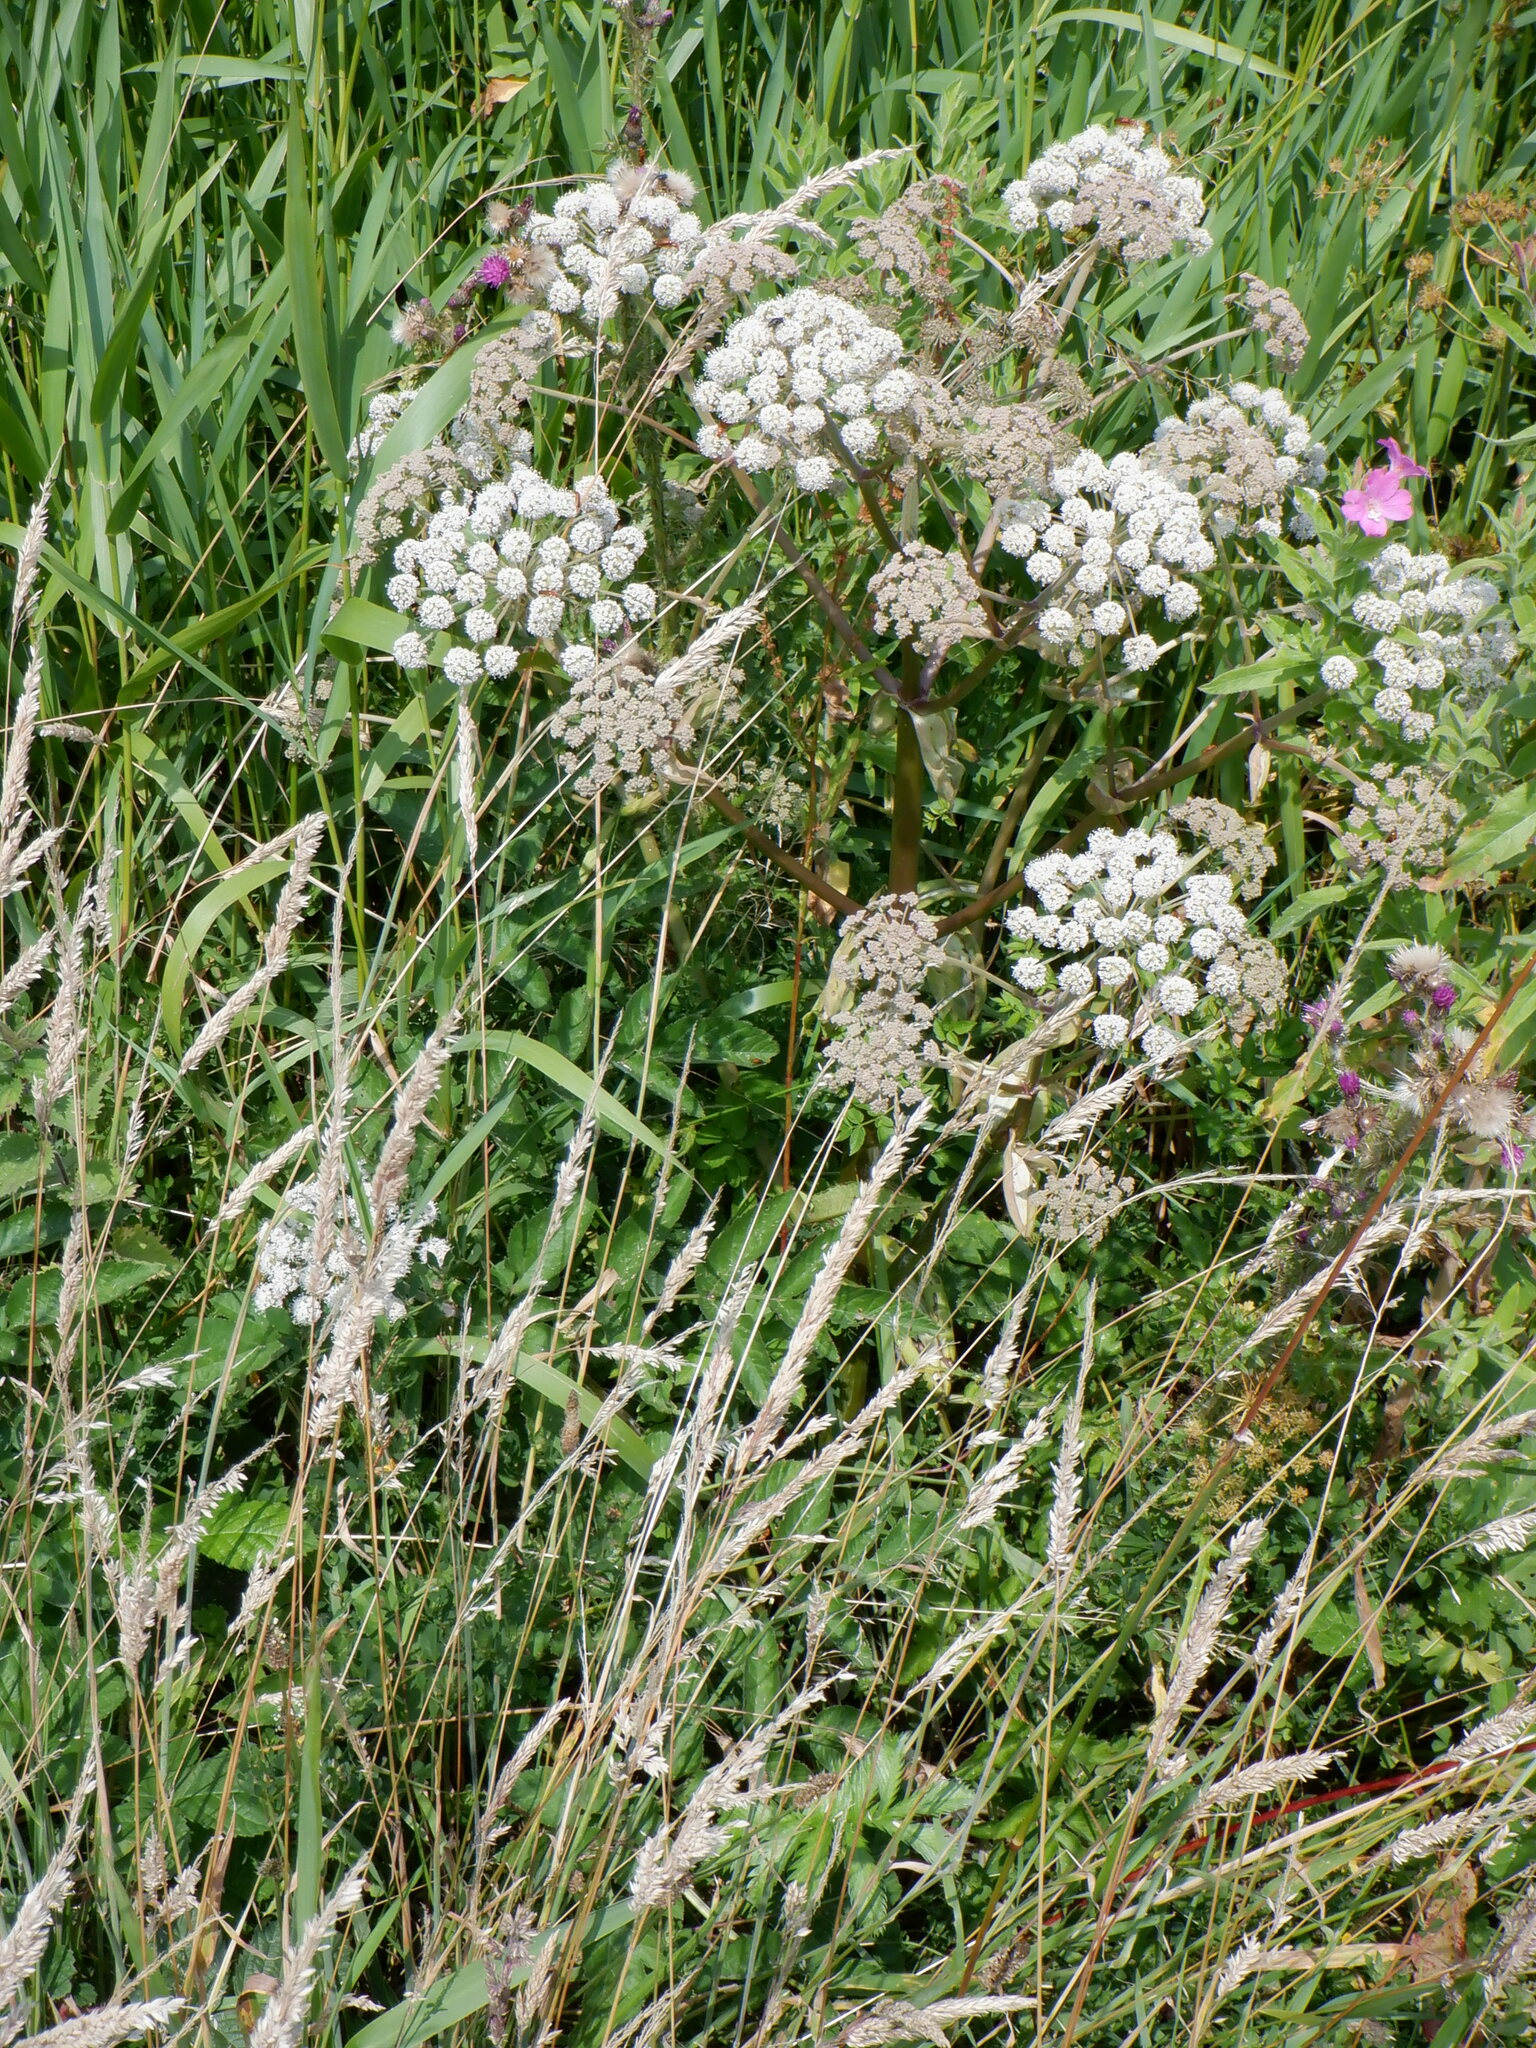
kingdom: Plantae
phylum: Tracheophyta
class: Magnoliopsida
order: Apiales
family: Apiaceae
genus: Angelica
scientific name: Angelica sylvestris
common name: Wild angelica
